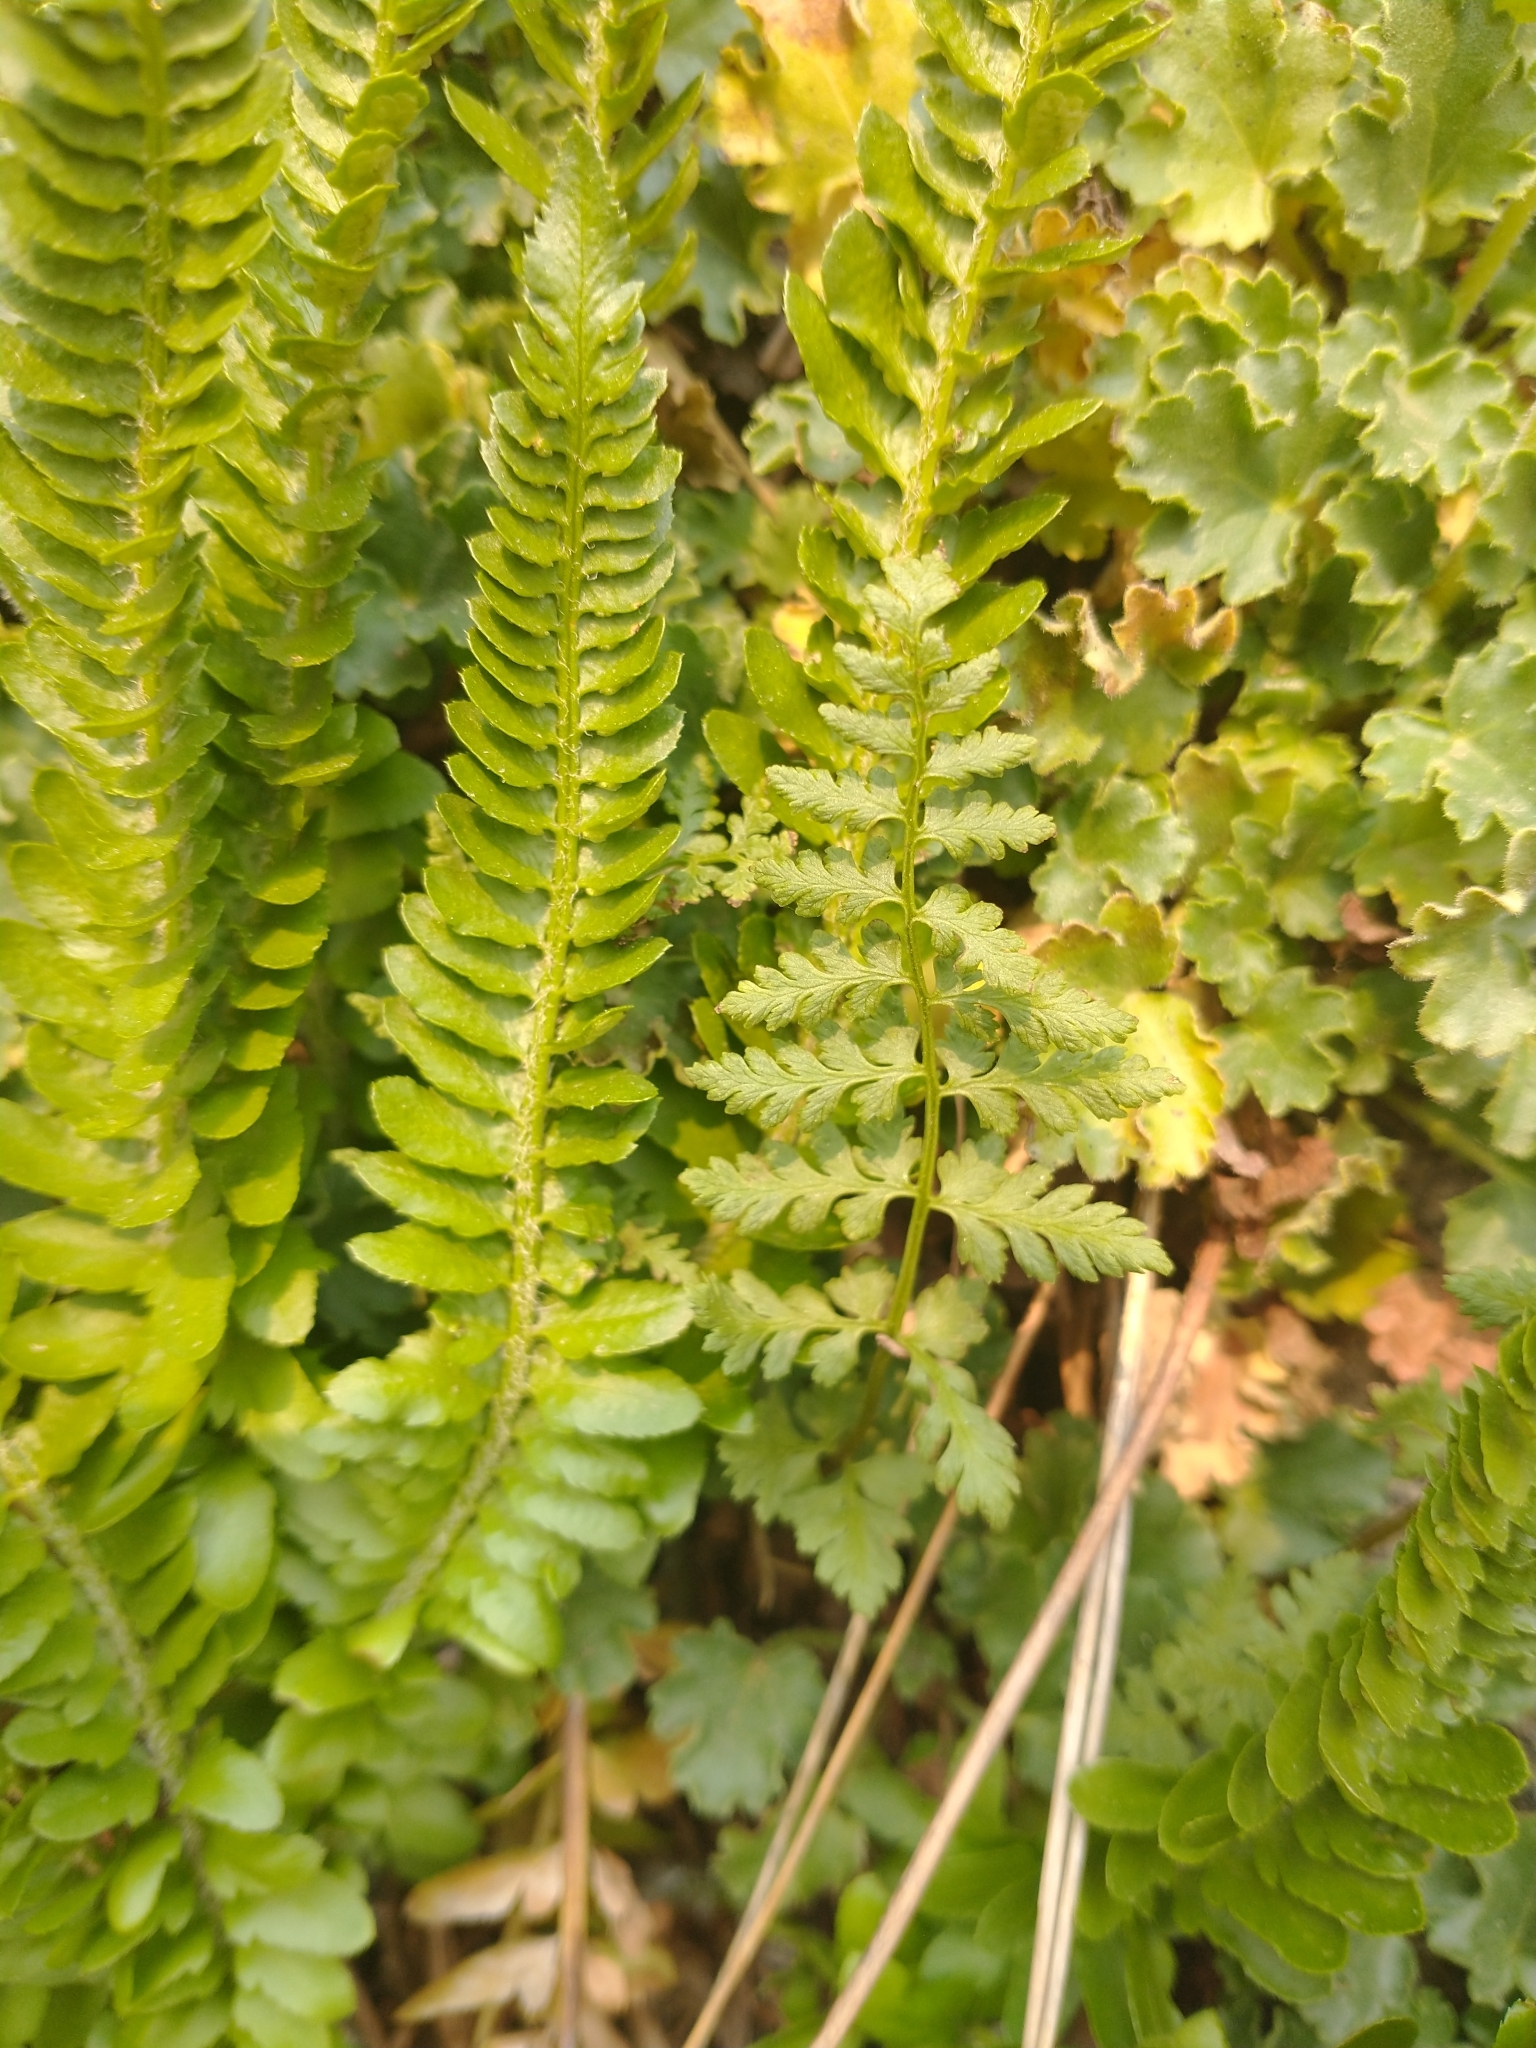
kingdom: Plantae
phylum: Tracheophyta
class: Polypodiopsida
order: Polypodiales
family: Cystopteridaceae
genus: Cystopteris
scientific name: Cystopteris fragilis
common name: Brittle bladder fern
